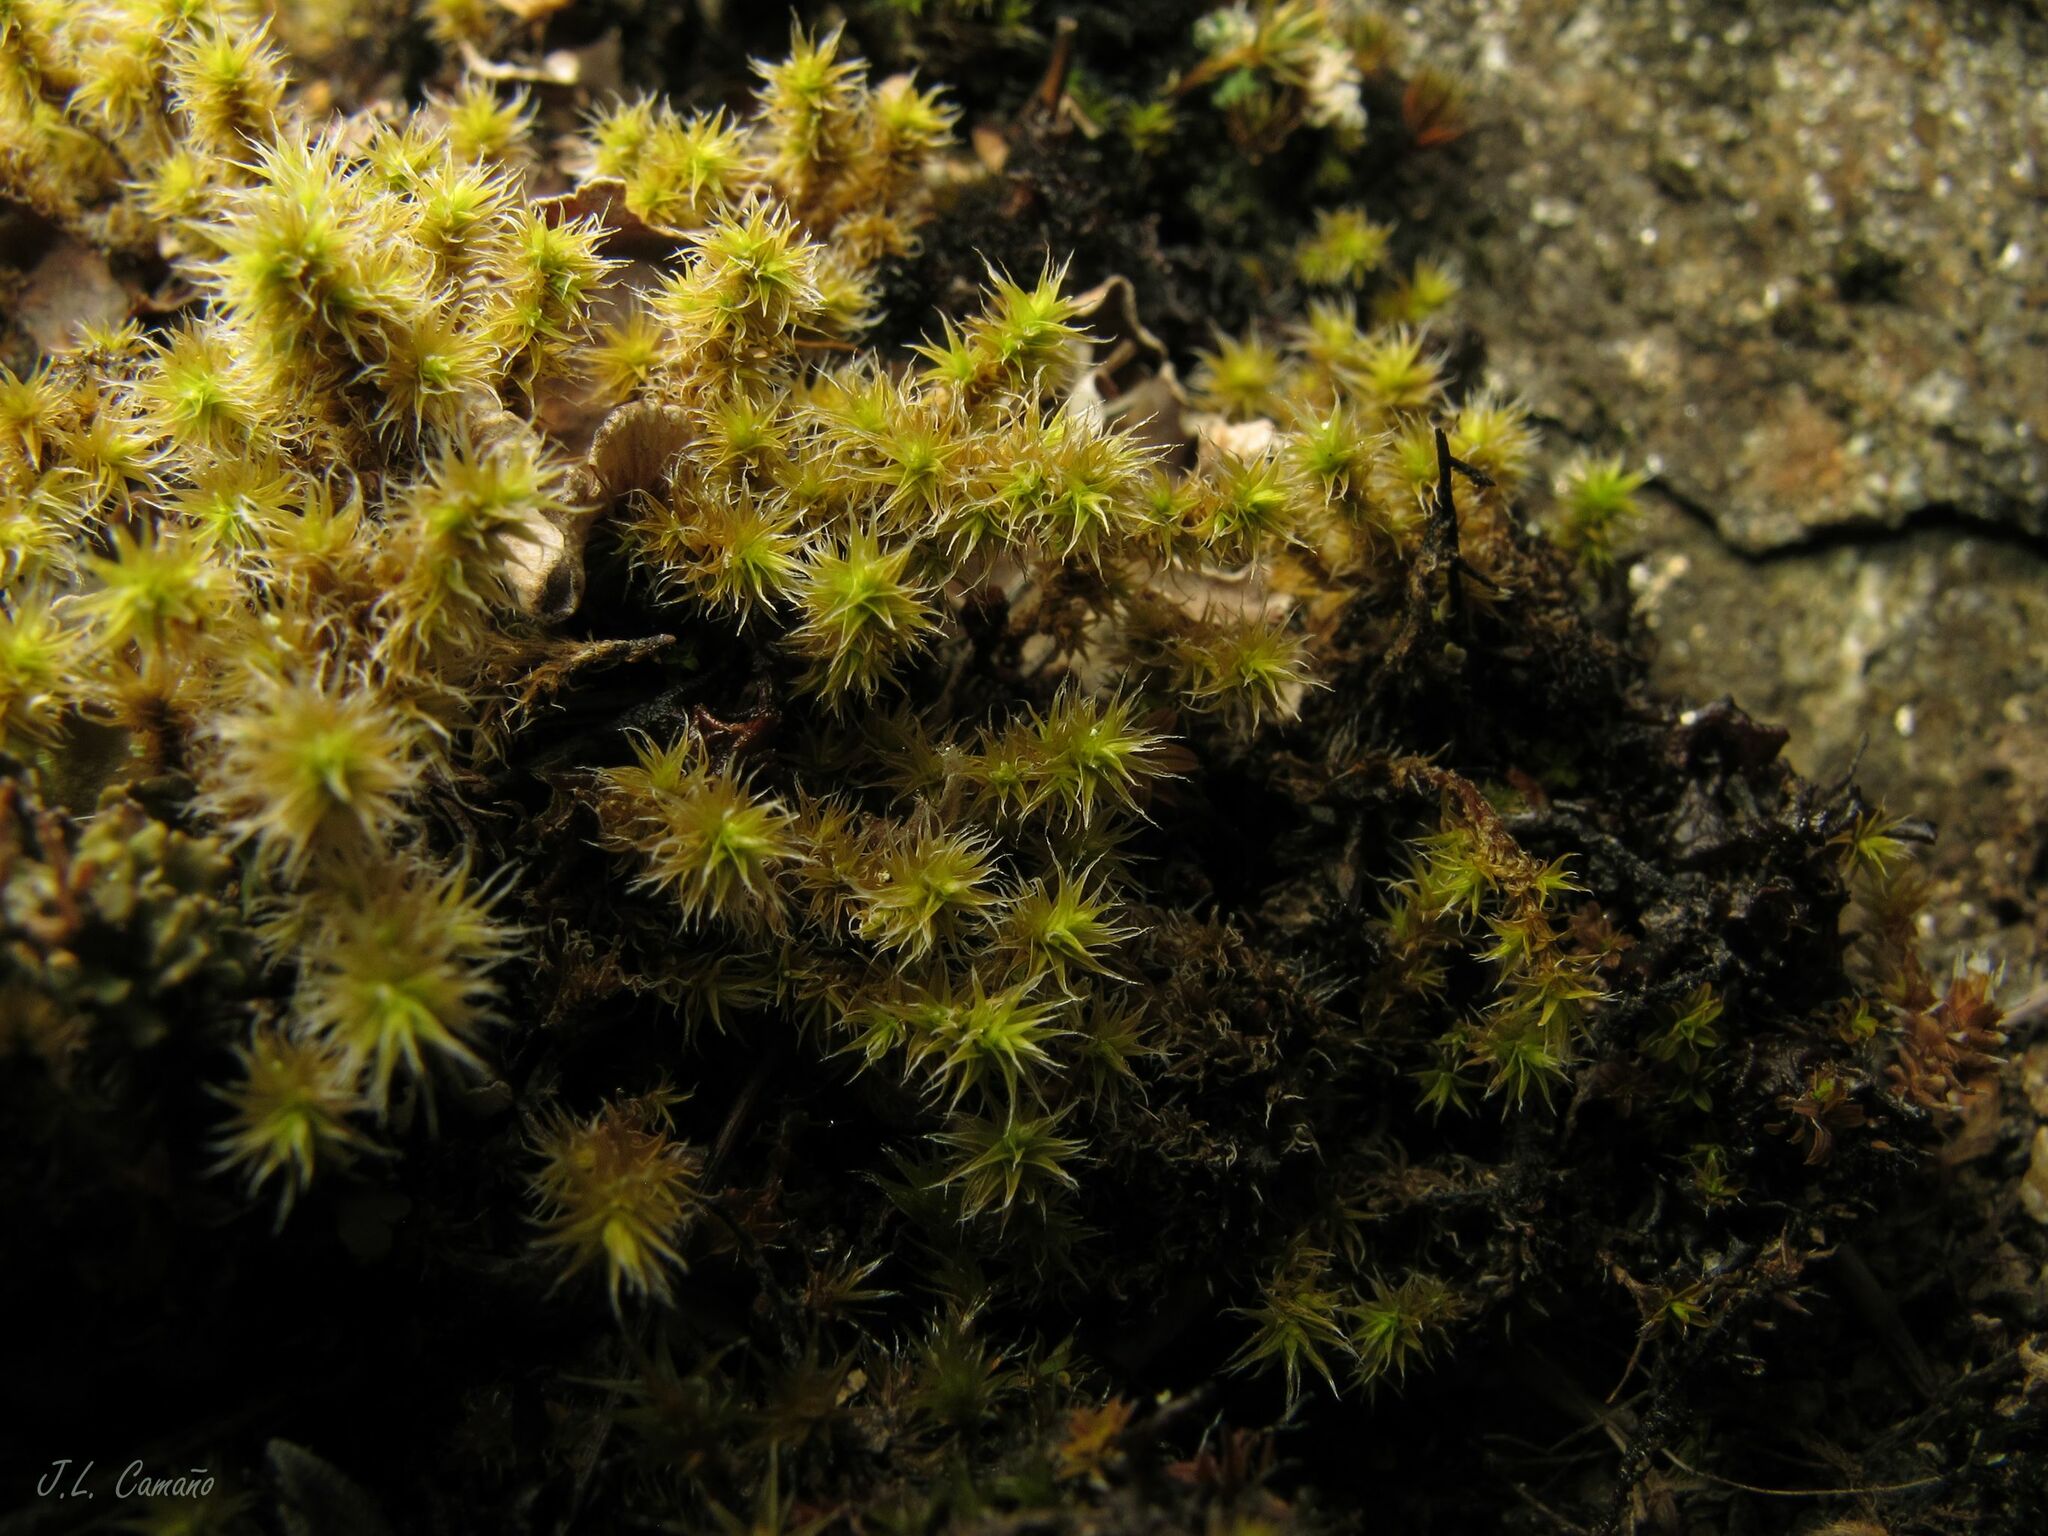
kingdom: Plantae
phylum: Bryophyta
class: Bryopsida
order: Grimmiales
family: Grimmiaceae
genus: Niphotrichum
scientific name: Niphotrichum elongatum
